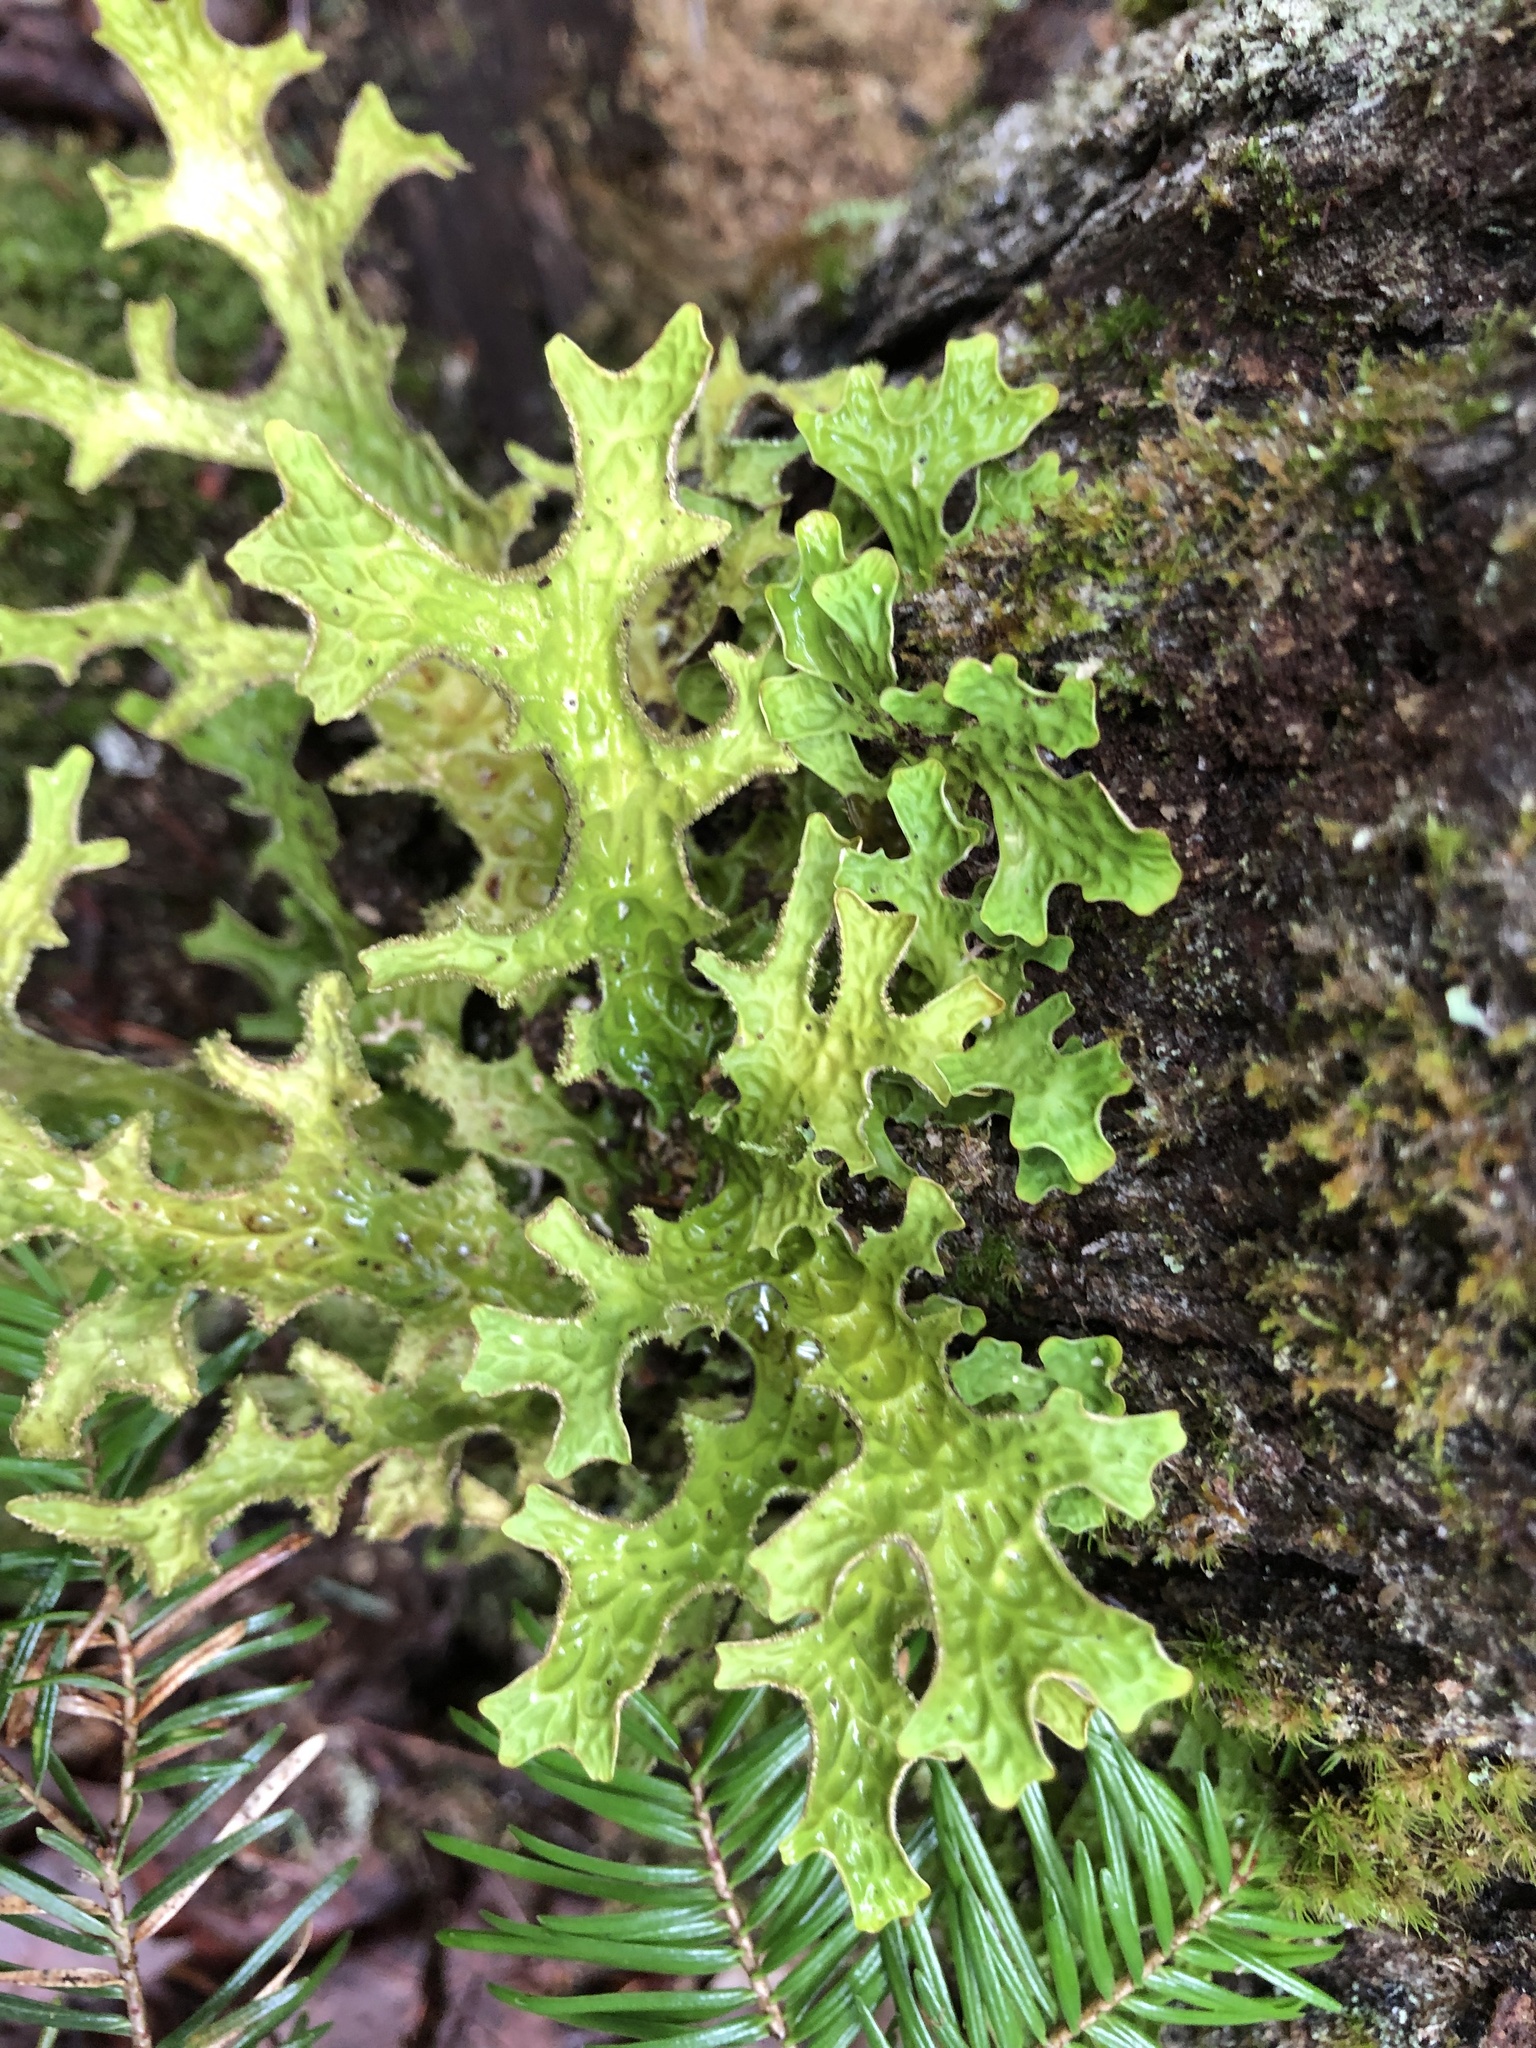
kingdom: Fungi
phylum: Ascomycota
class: Lecanoromycetes
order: Peltigerales
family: Lobariaceae
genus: Lobaria
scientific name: Lobaria pulmonaria
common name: Lungwort
